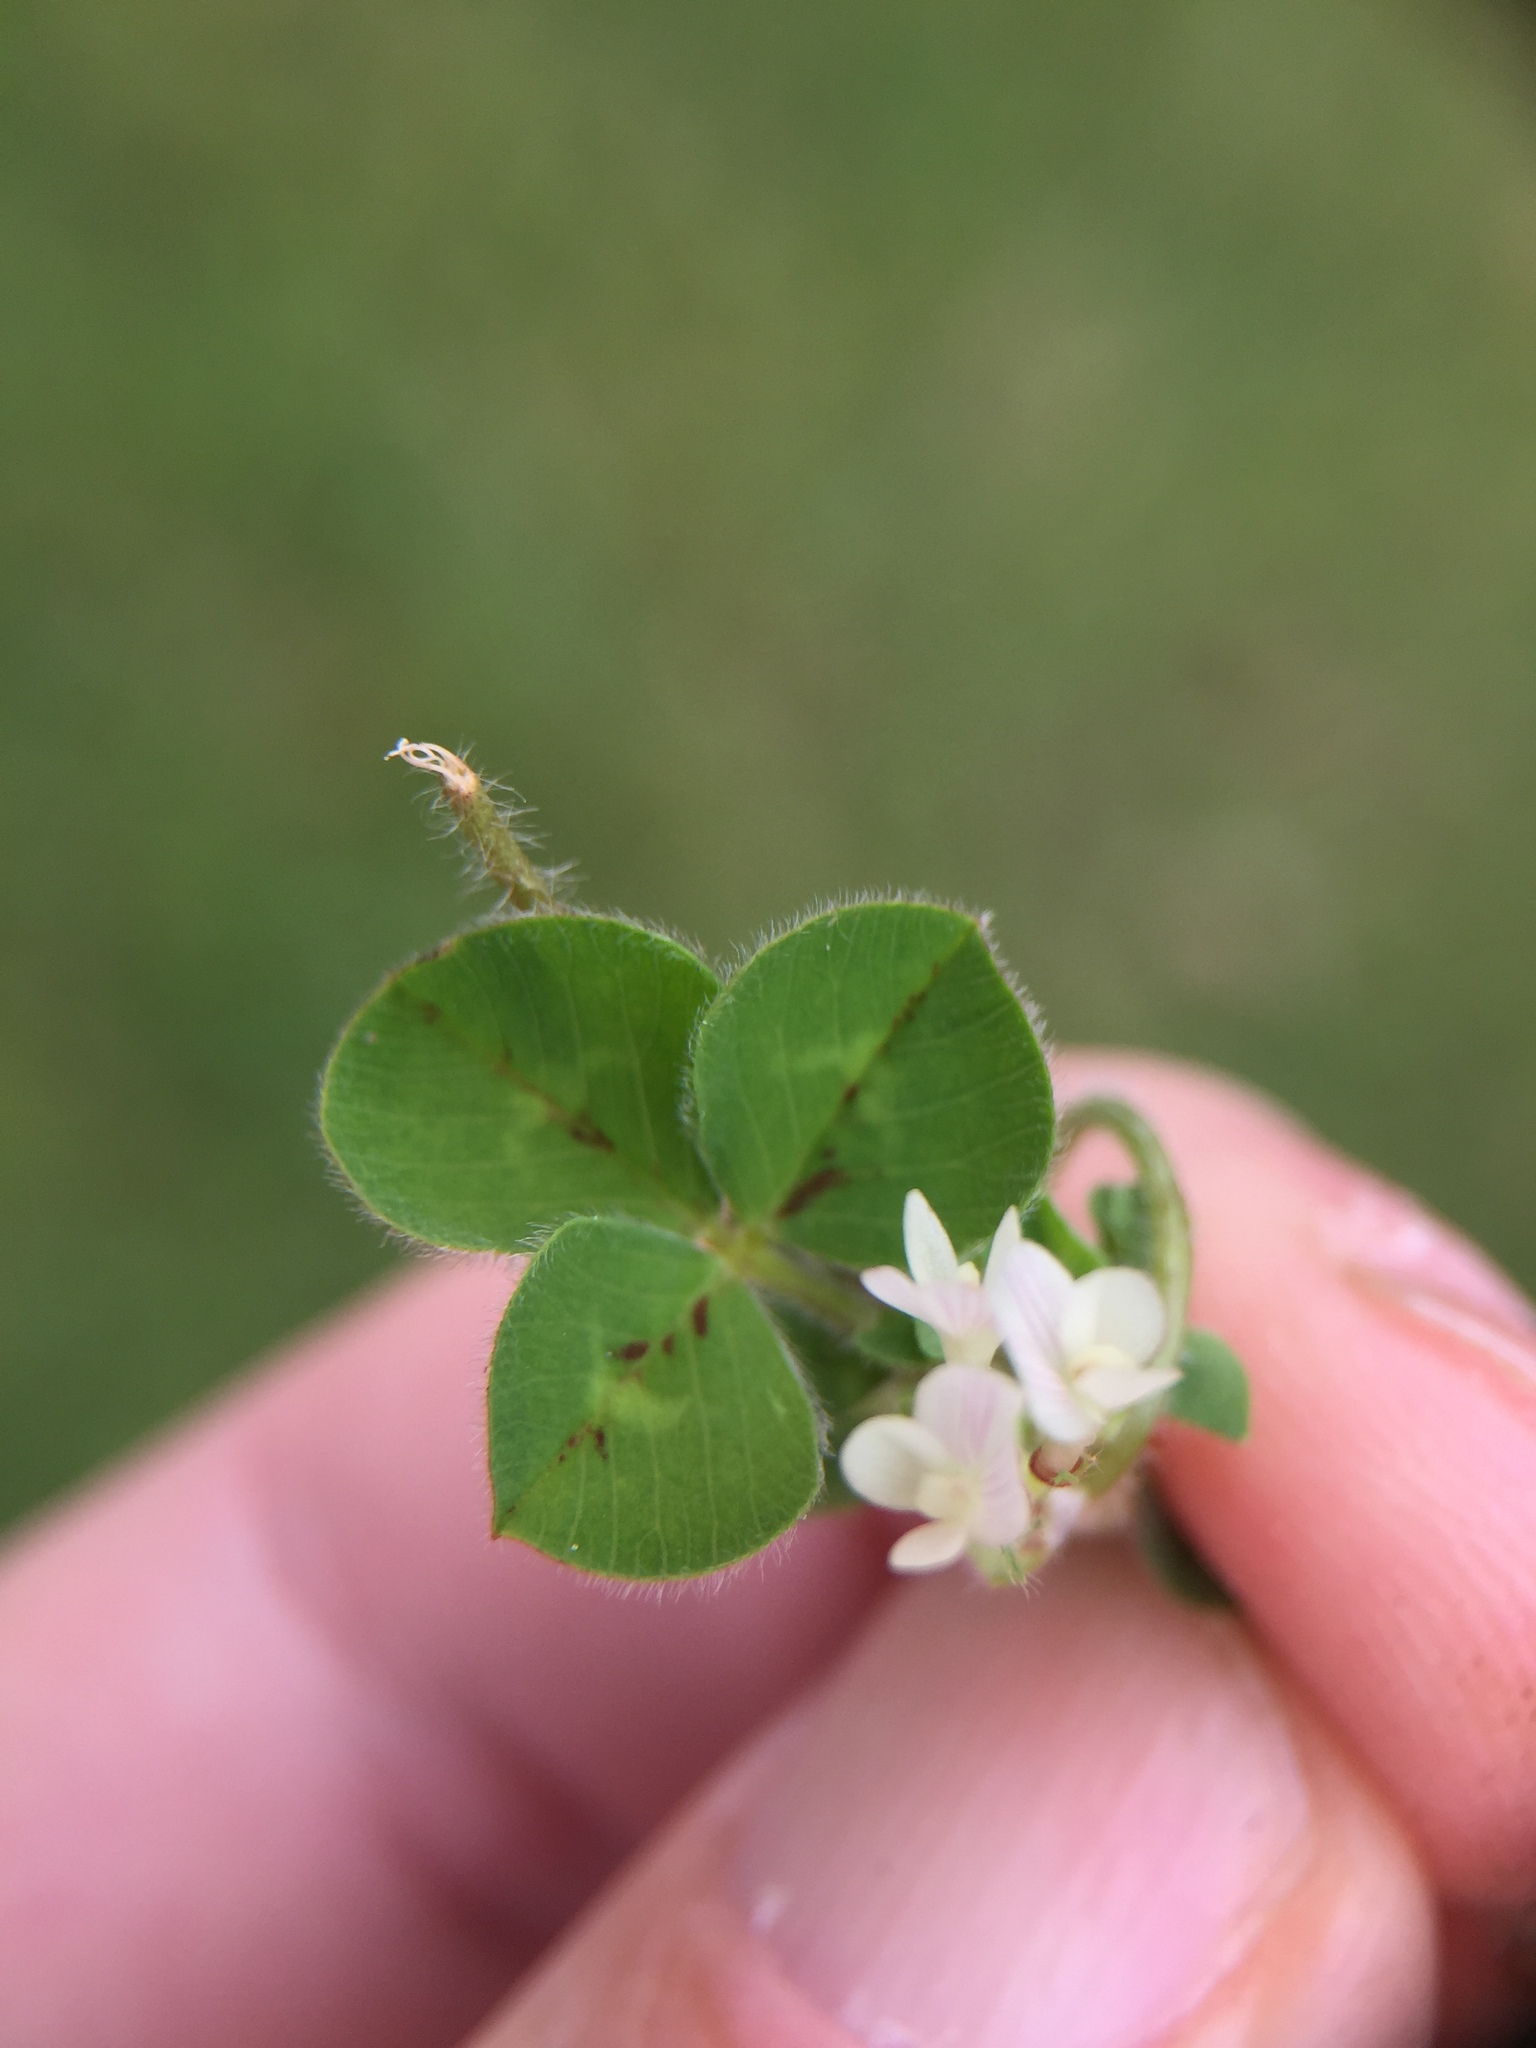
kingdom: Plantae
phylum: Tracheophyta
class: Magnoliopsida
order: Fabales
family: Fabaceae
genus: Trifolium
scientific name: Trifolium subterraneum
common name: Subterranean clover
